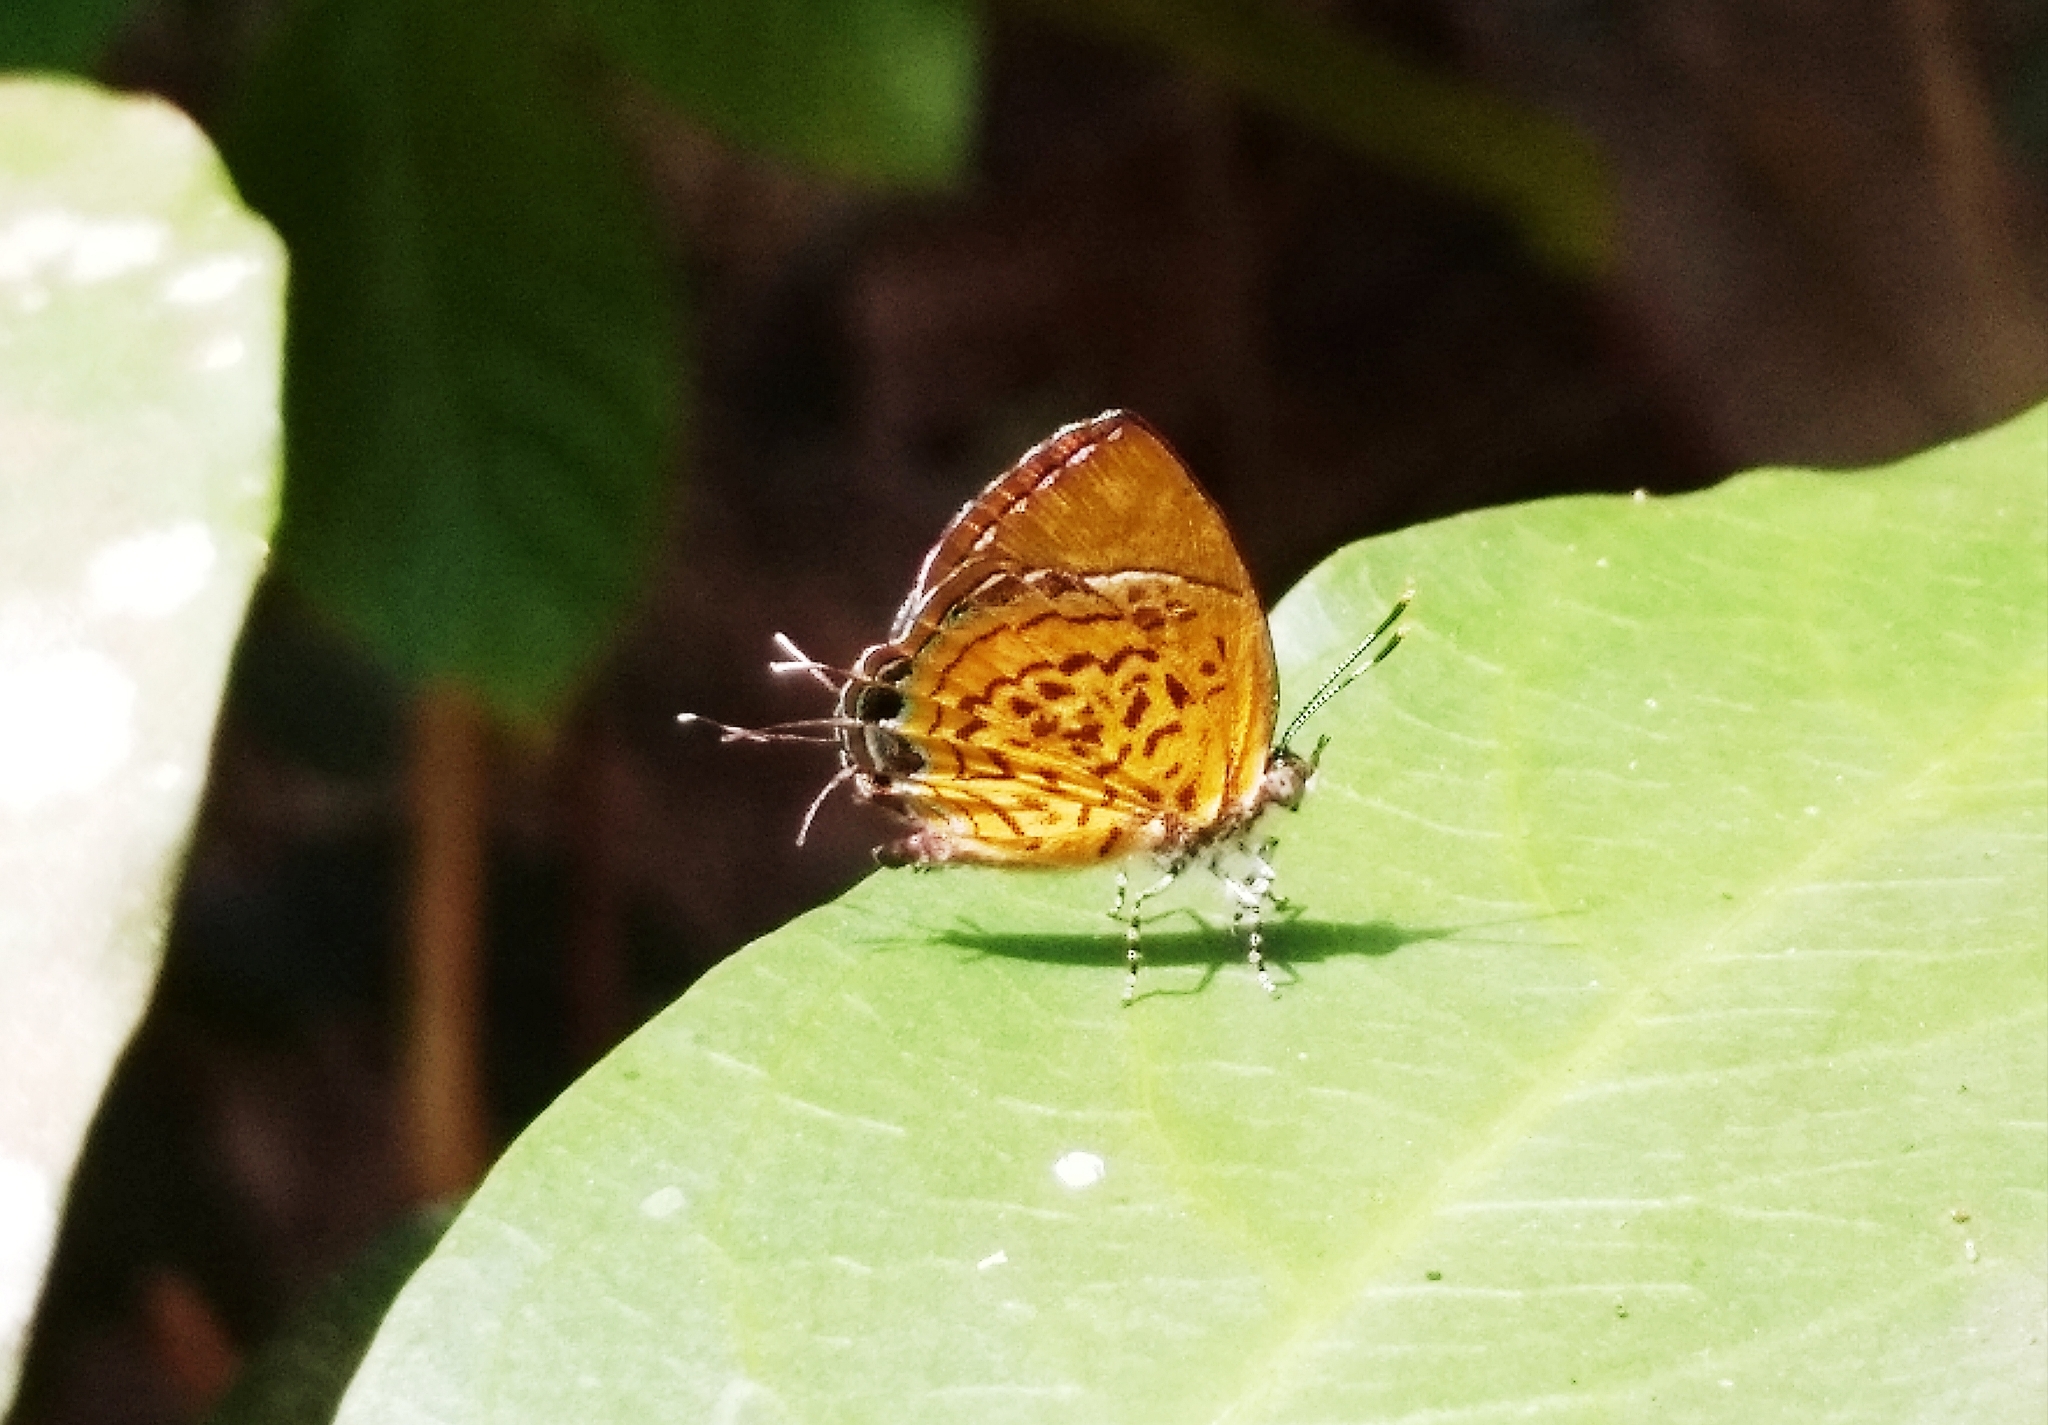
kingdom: Animalia
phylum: Arthropoda
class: Insecta
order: Lepidoptera
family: Lycaenidae
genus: Rathinda
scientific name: Rathinda amor
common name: Monkey puzzle
